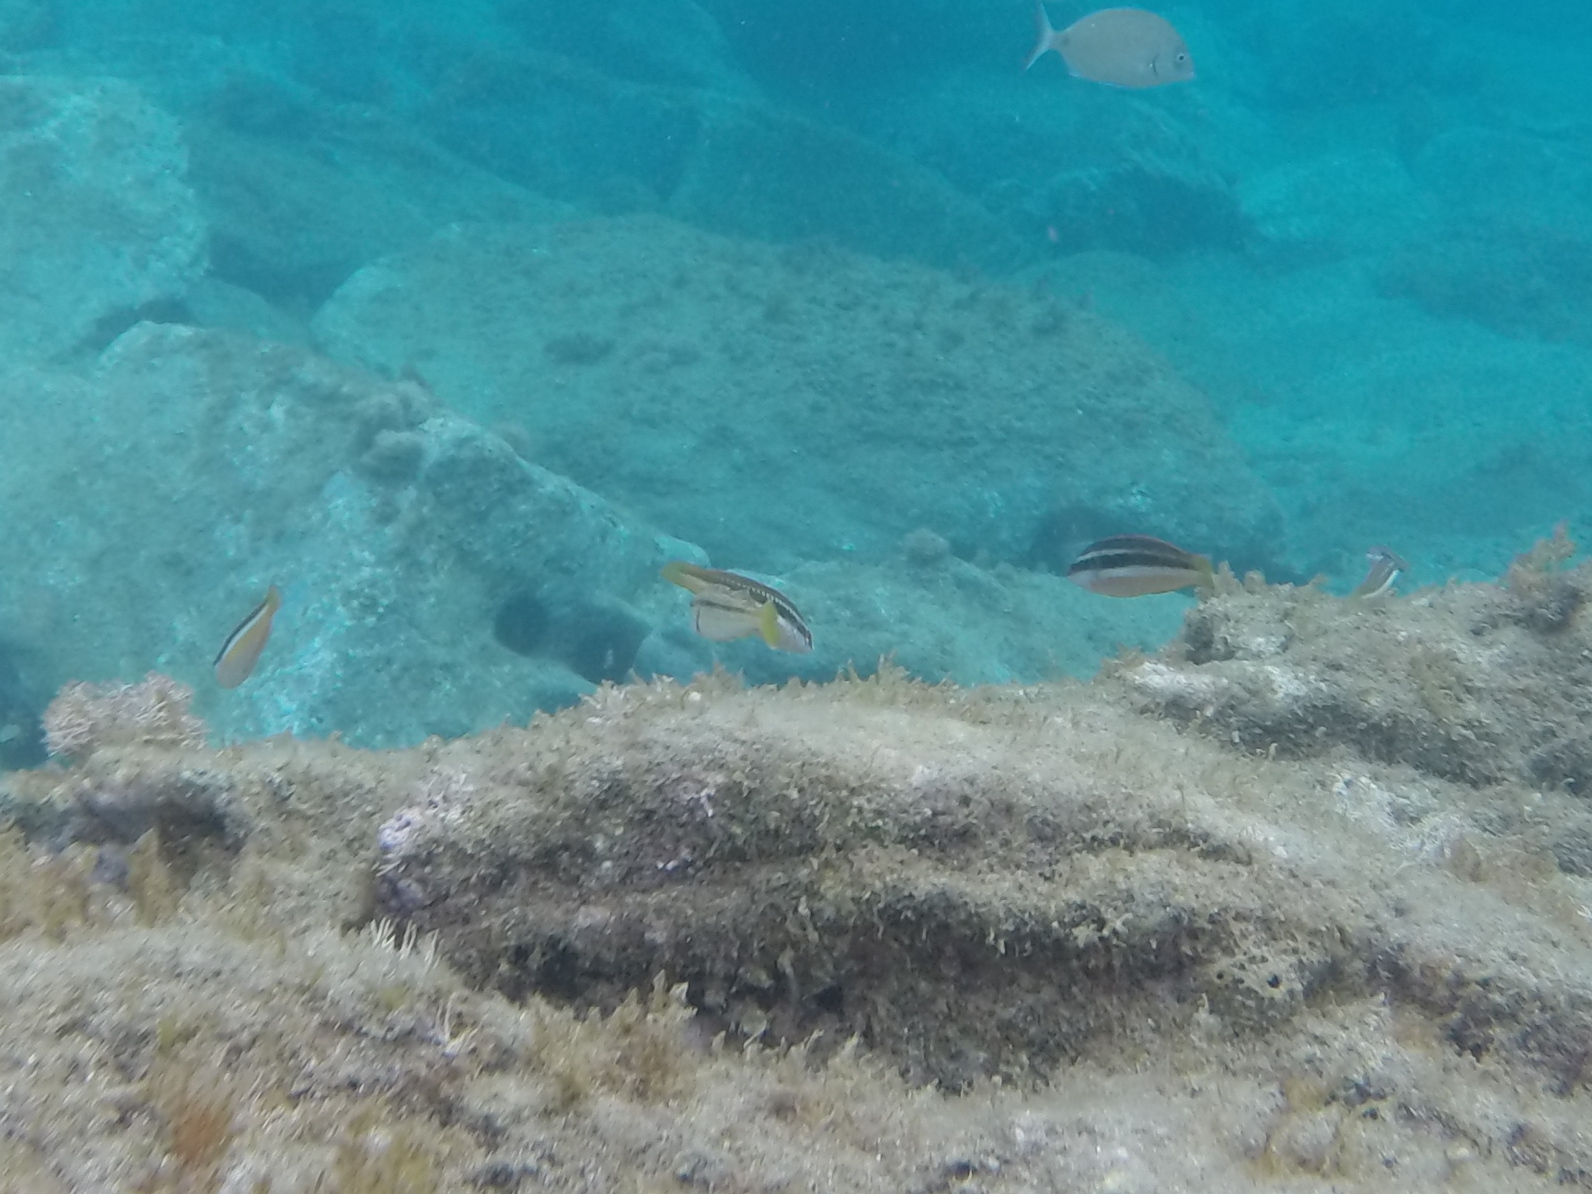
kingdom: Animalia
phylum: Chordata
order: Perciformes
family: Labridae
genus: Coris
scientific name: Coris julis
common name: Rainbow wrasse
